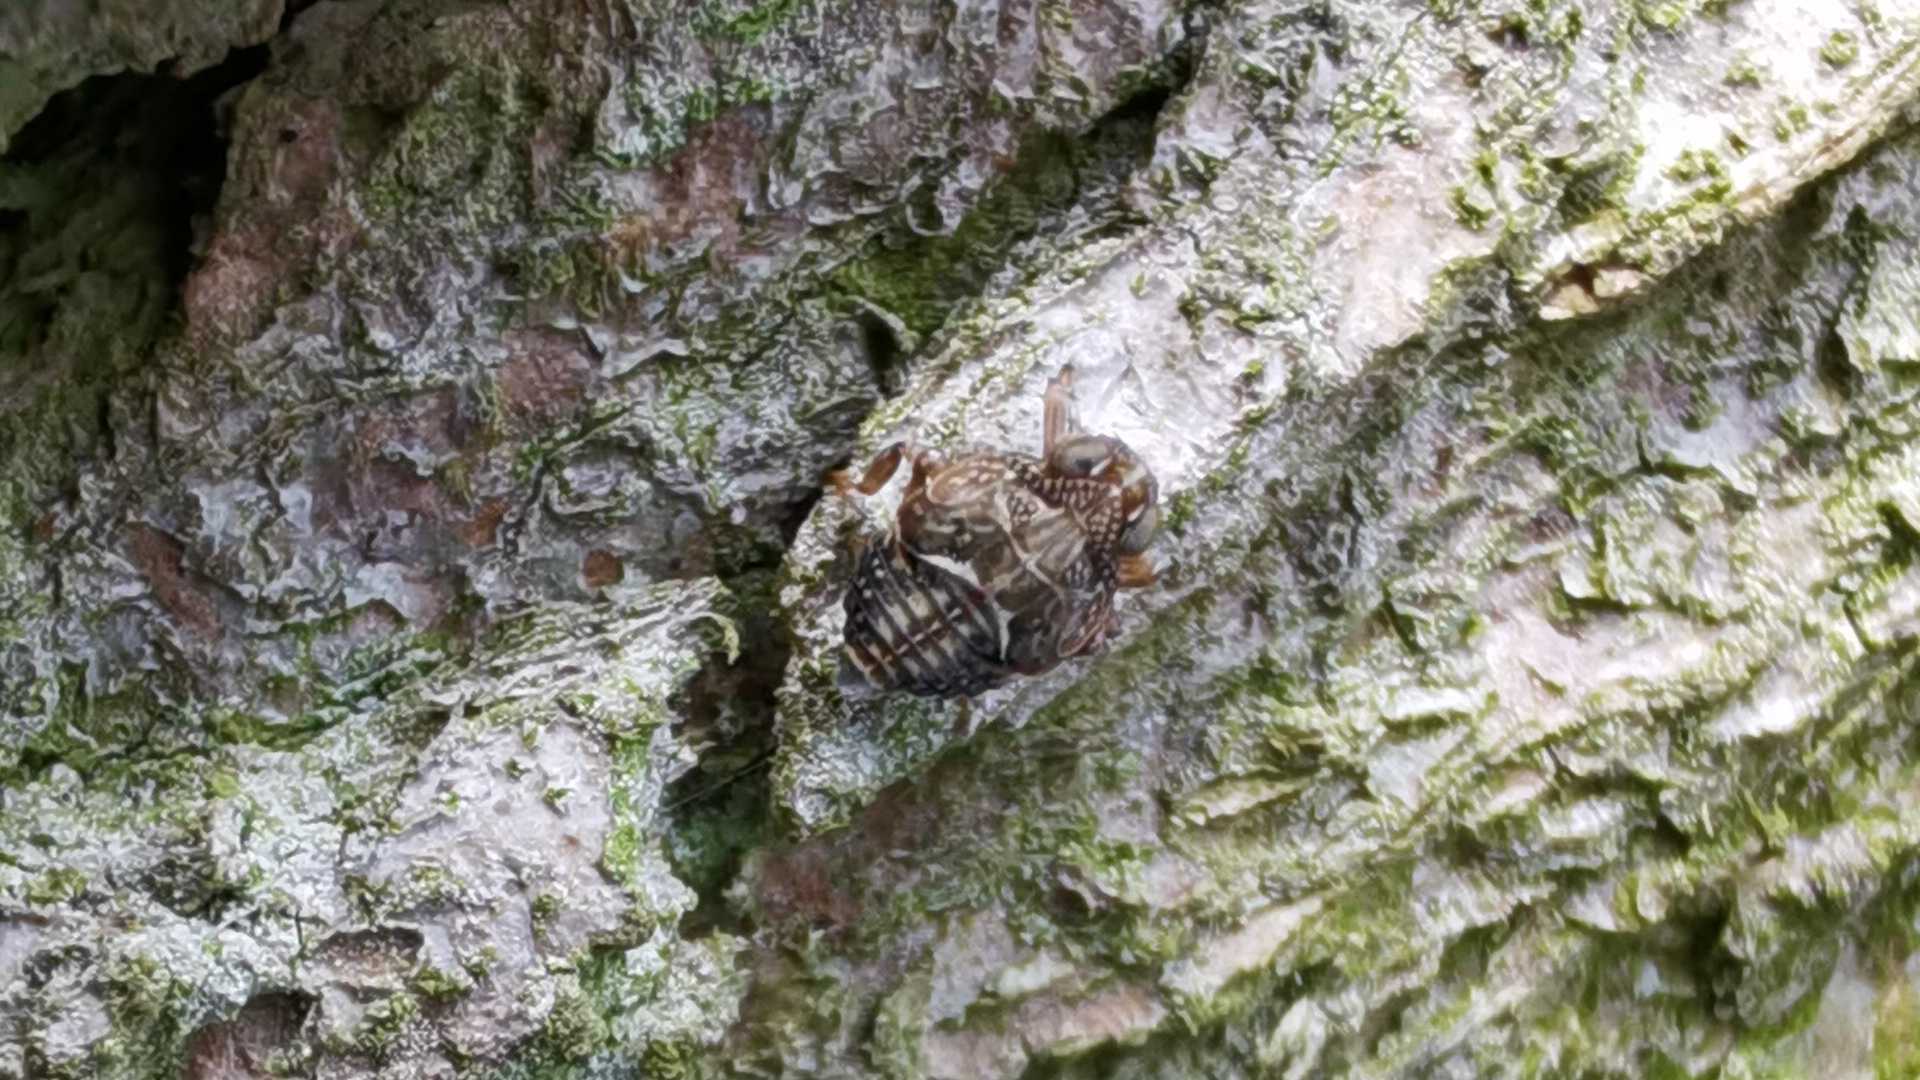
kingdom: Animalia
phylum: Arthropoda
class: Insecta
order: Hemiptera
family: Issidae
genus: Issus
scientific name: Issus
